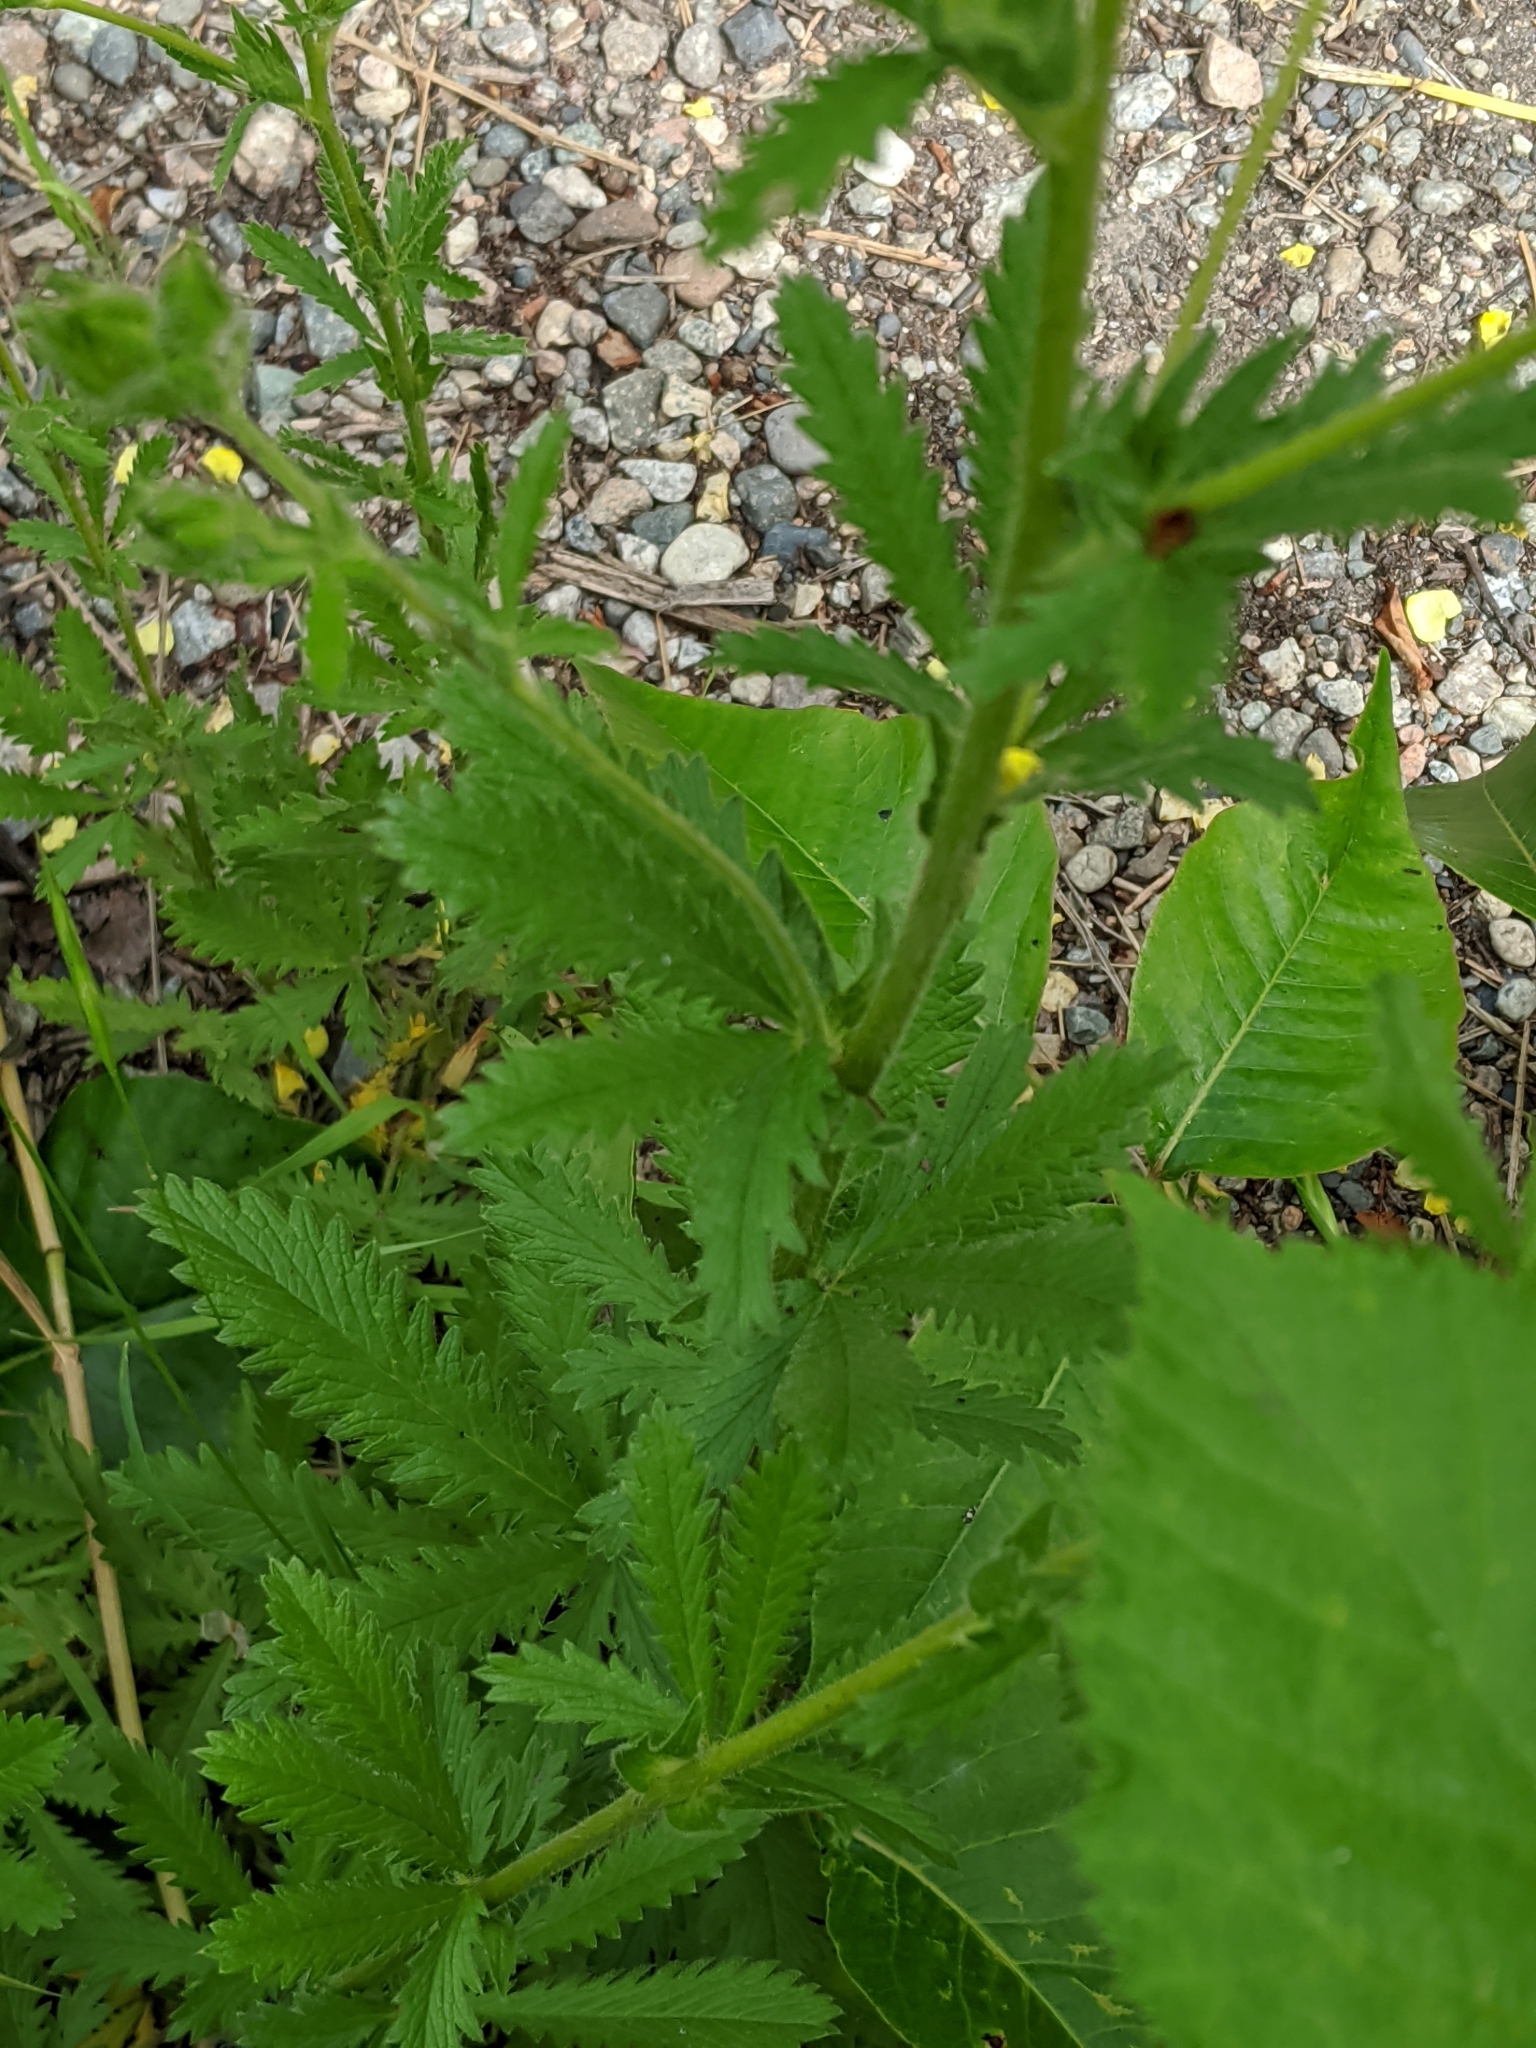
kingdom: Plantae
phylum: Tracheophyta
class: Magnoliopsida
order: Rosales
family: Rosaceae
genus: Potentilla
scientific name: Potentilla recta
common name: Sulphur cinquefoil
